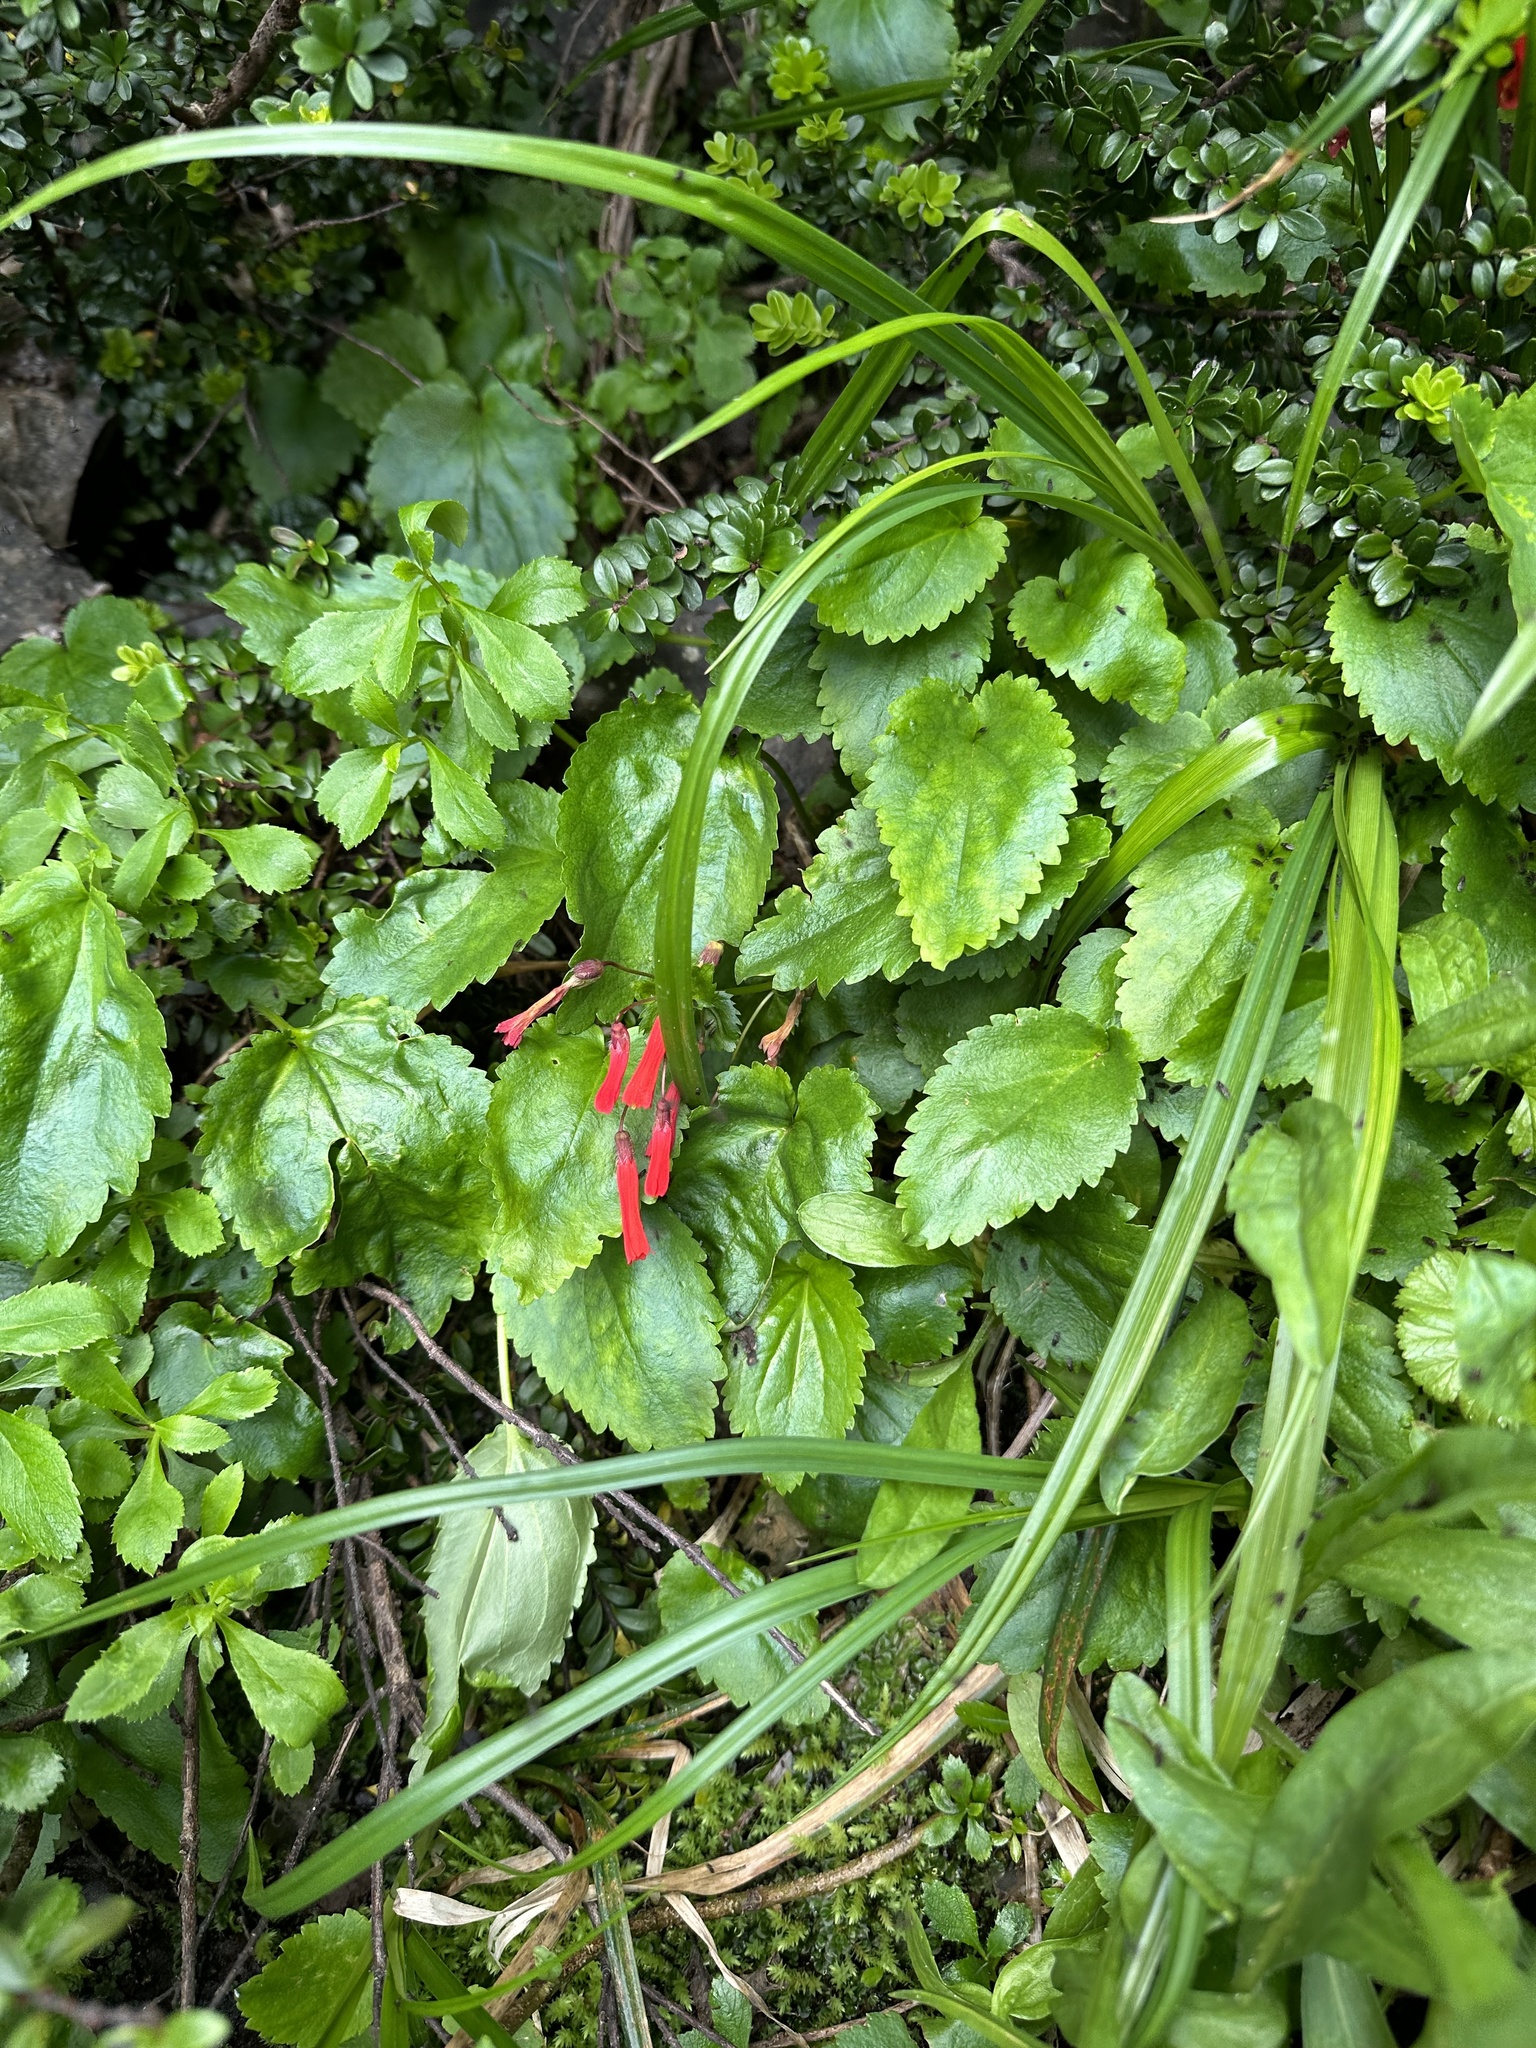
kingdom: Plantae
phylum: Tracheophyta
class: Magnoliopsida
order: Lamiales
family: Plantaginaceae
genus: Ourisia
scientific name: Ourisia ruellioides
